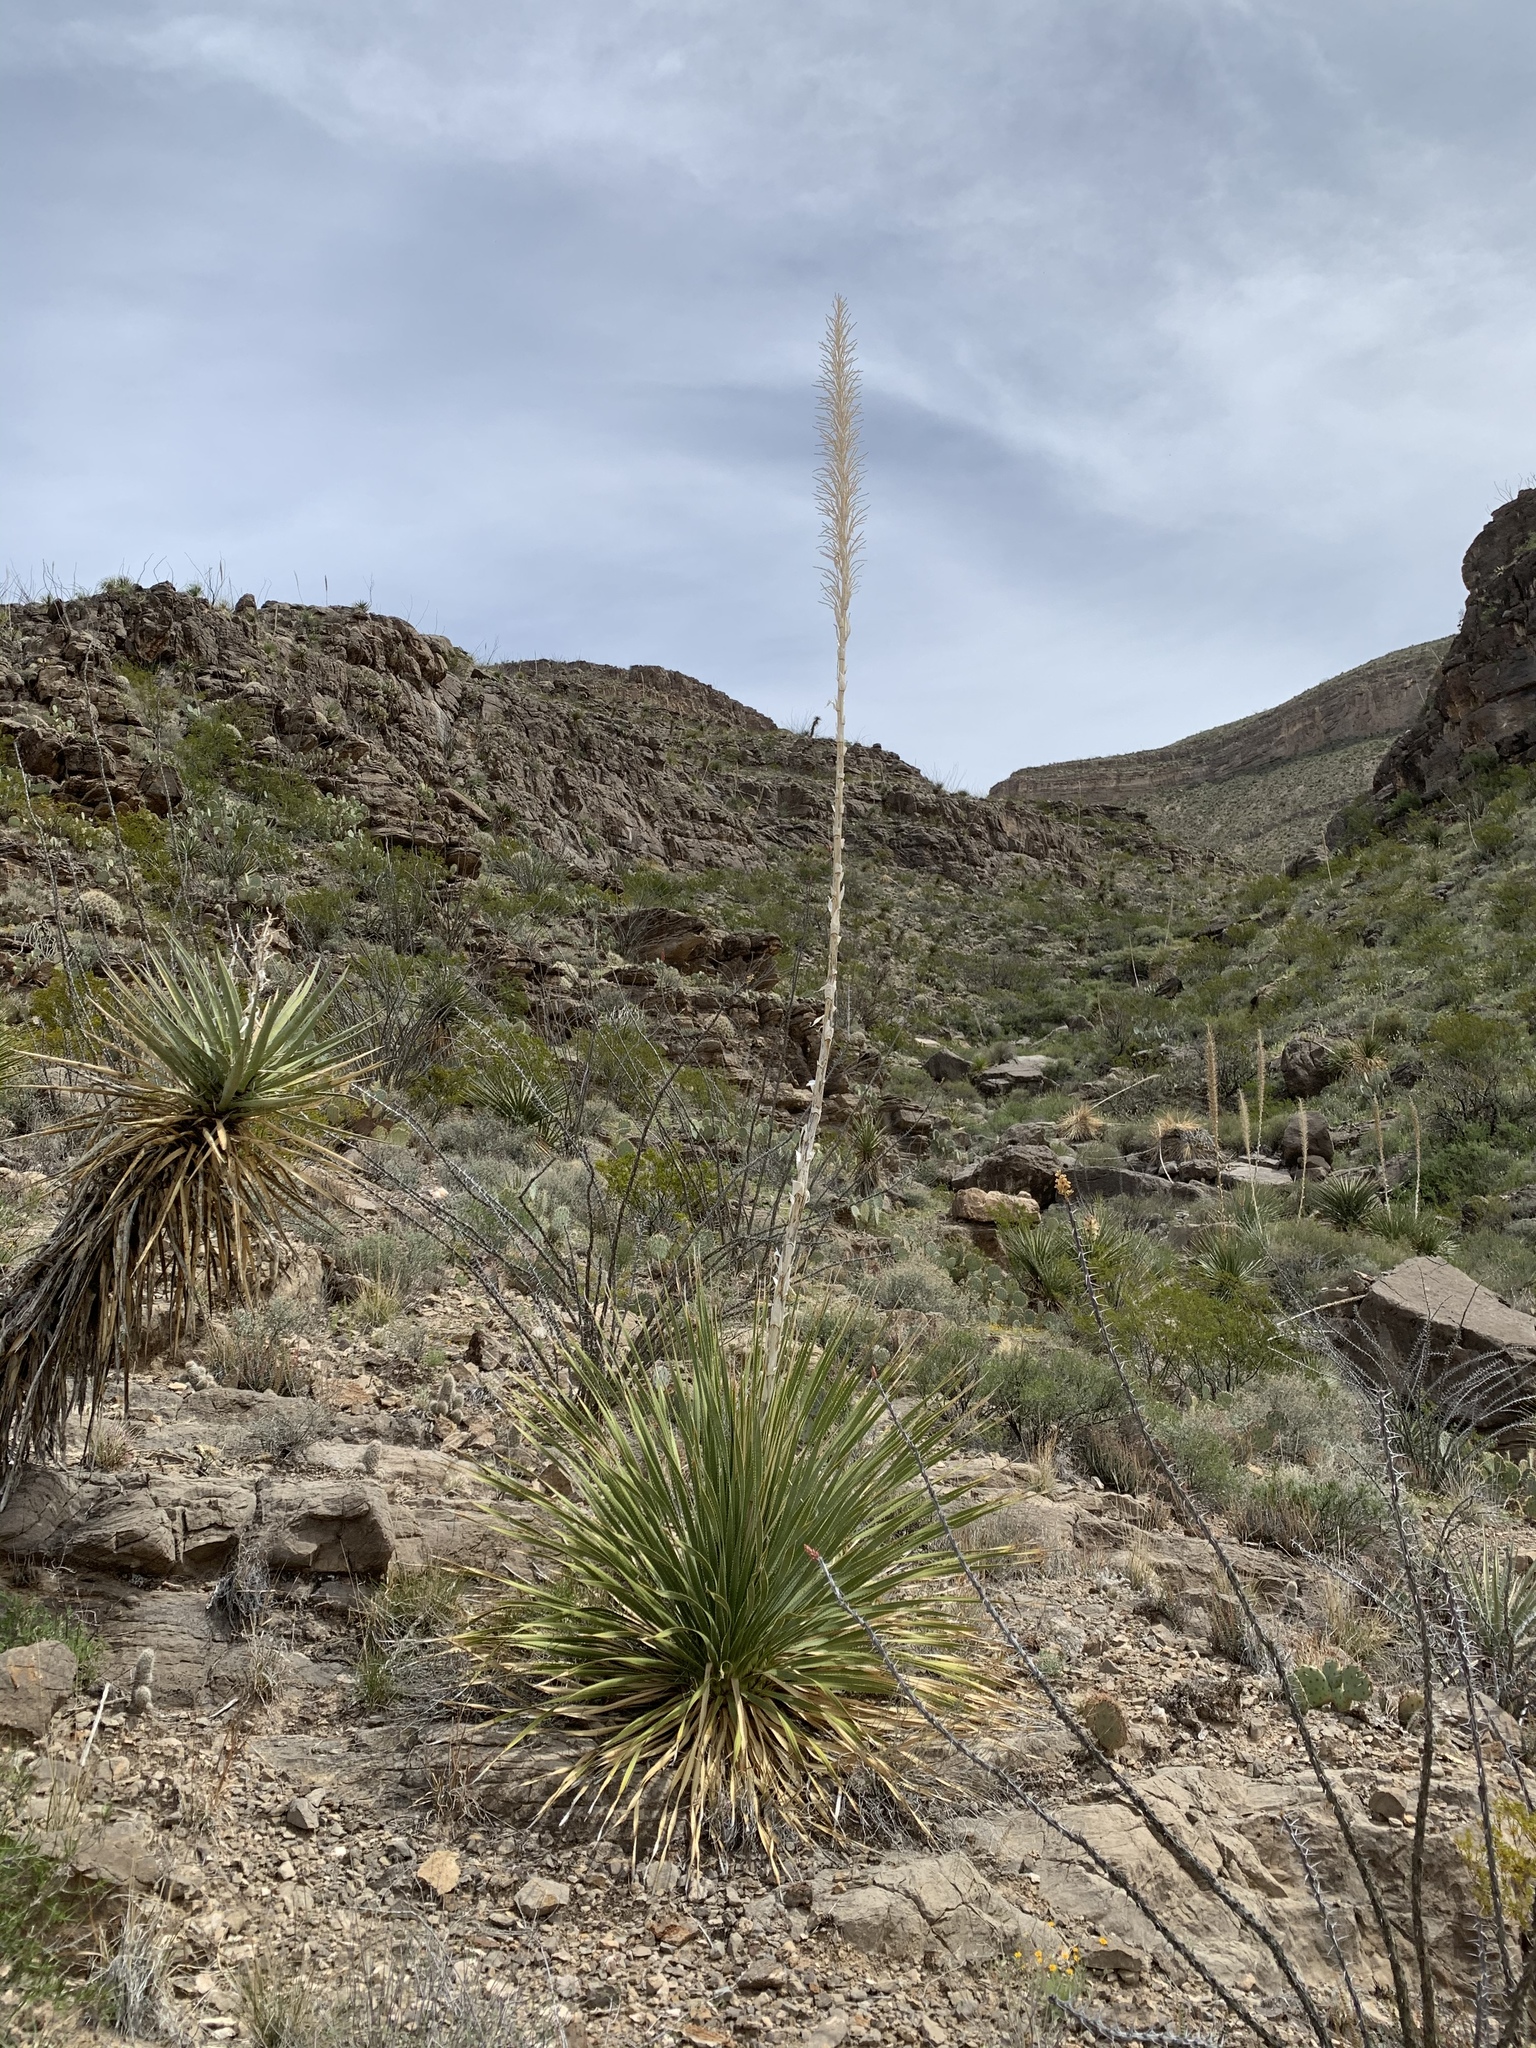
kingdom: Plantae
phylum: Tracheophyta
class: Liliopsida
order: Asparagales
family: Asparagaceae
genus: Dasylirion
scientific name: Dasylirion wheeleri
